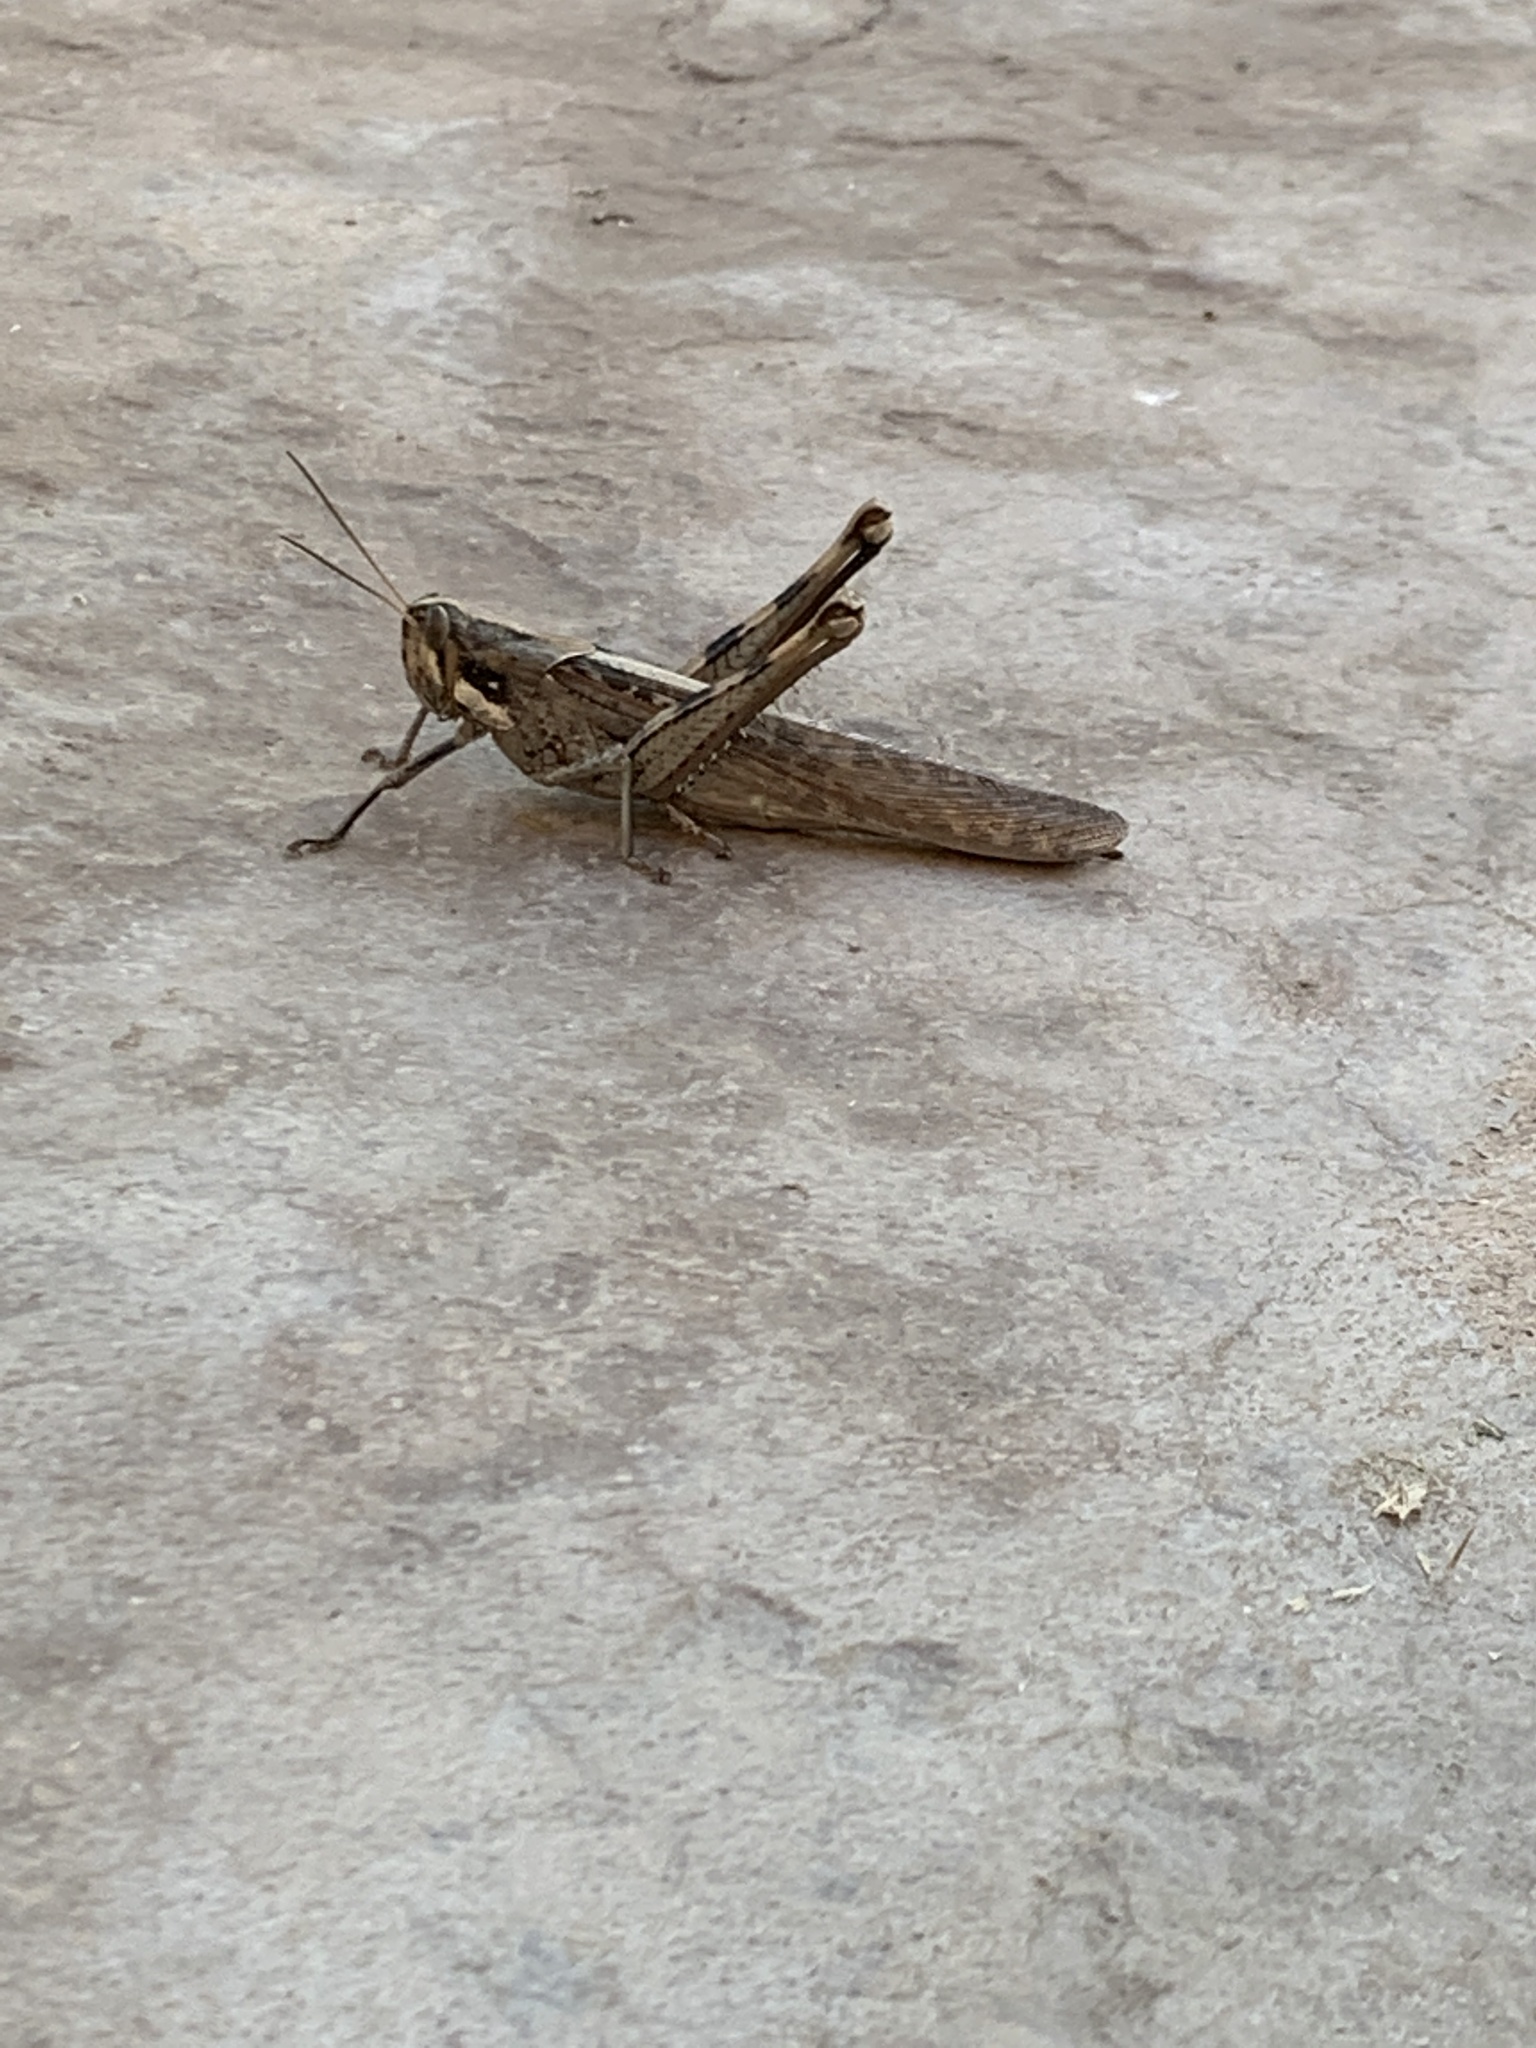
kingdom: Animalia
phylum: Arthropoda
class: Insecta
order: Orthoptera
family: Acrididae
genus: Schistocerca
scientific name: Schistocerca nitens
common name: Vagrant grasshopper
